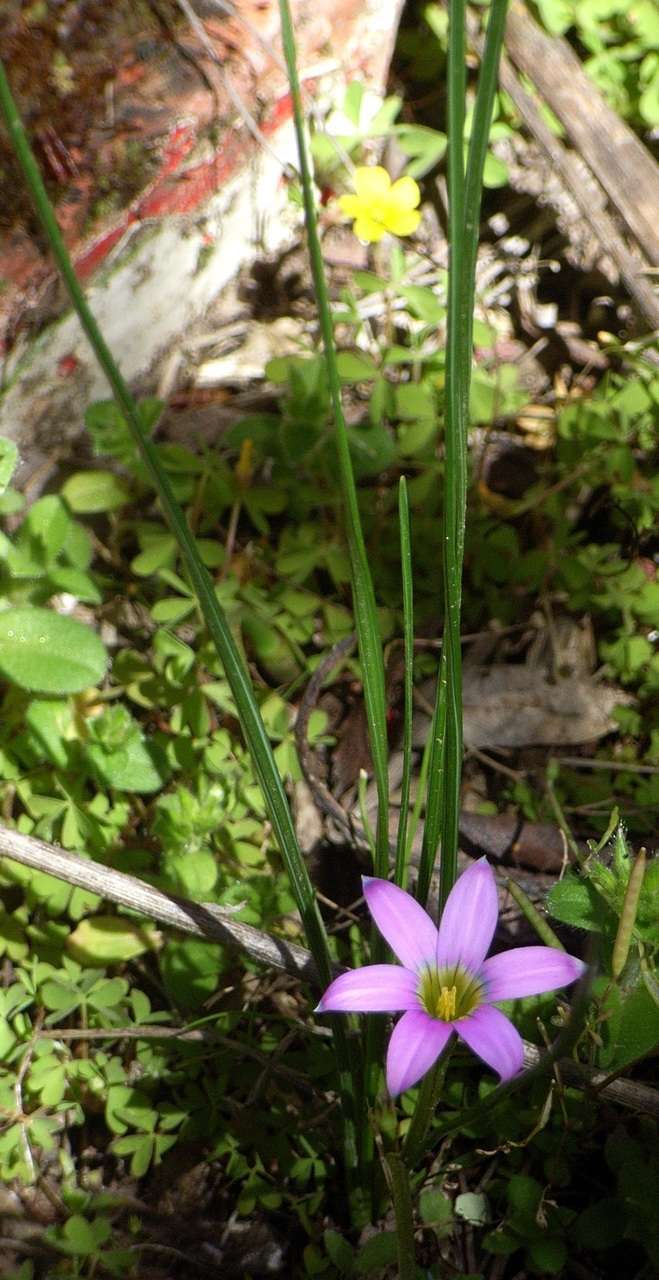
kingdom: Plantae
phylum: Tracheophyta
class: Liliopsida
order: Asparagales
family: Iridaceae
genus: Romulea
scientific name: Romulea rosea
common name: Oniongrass
